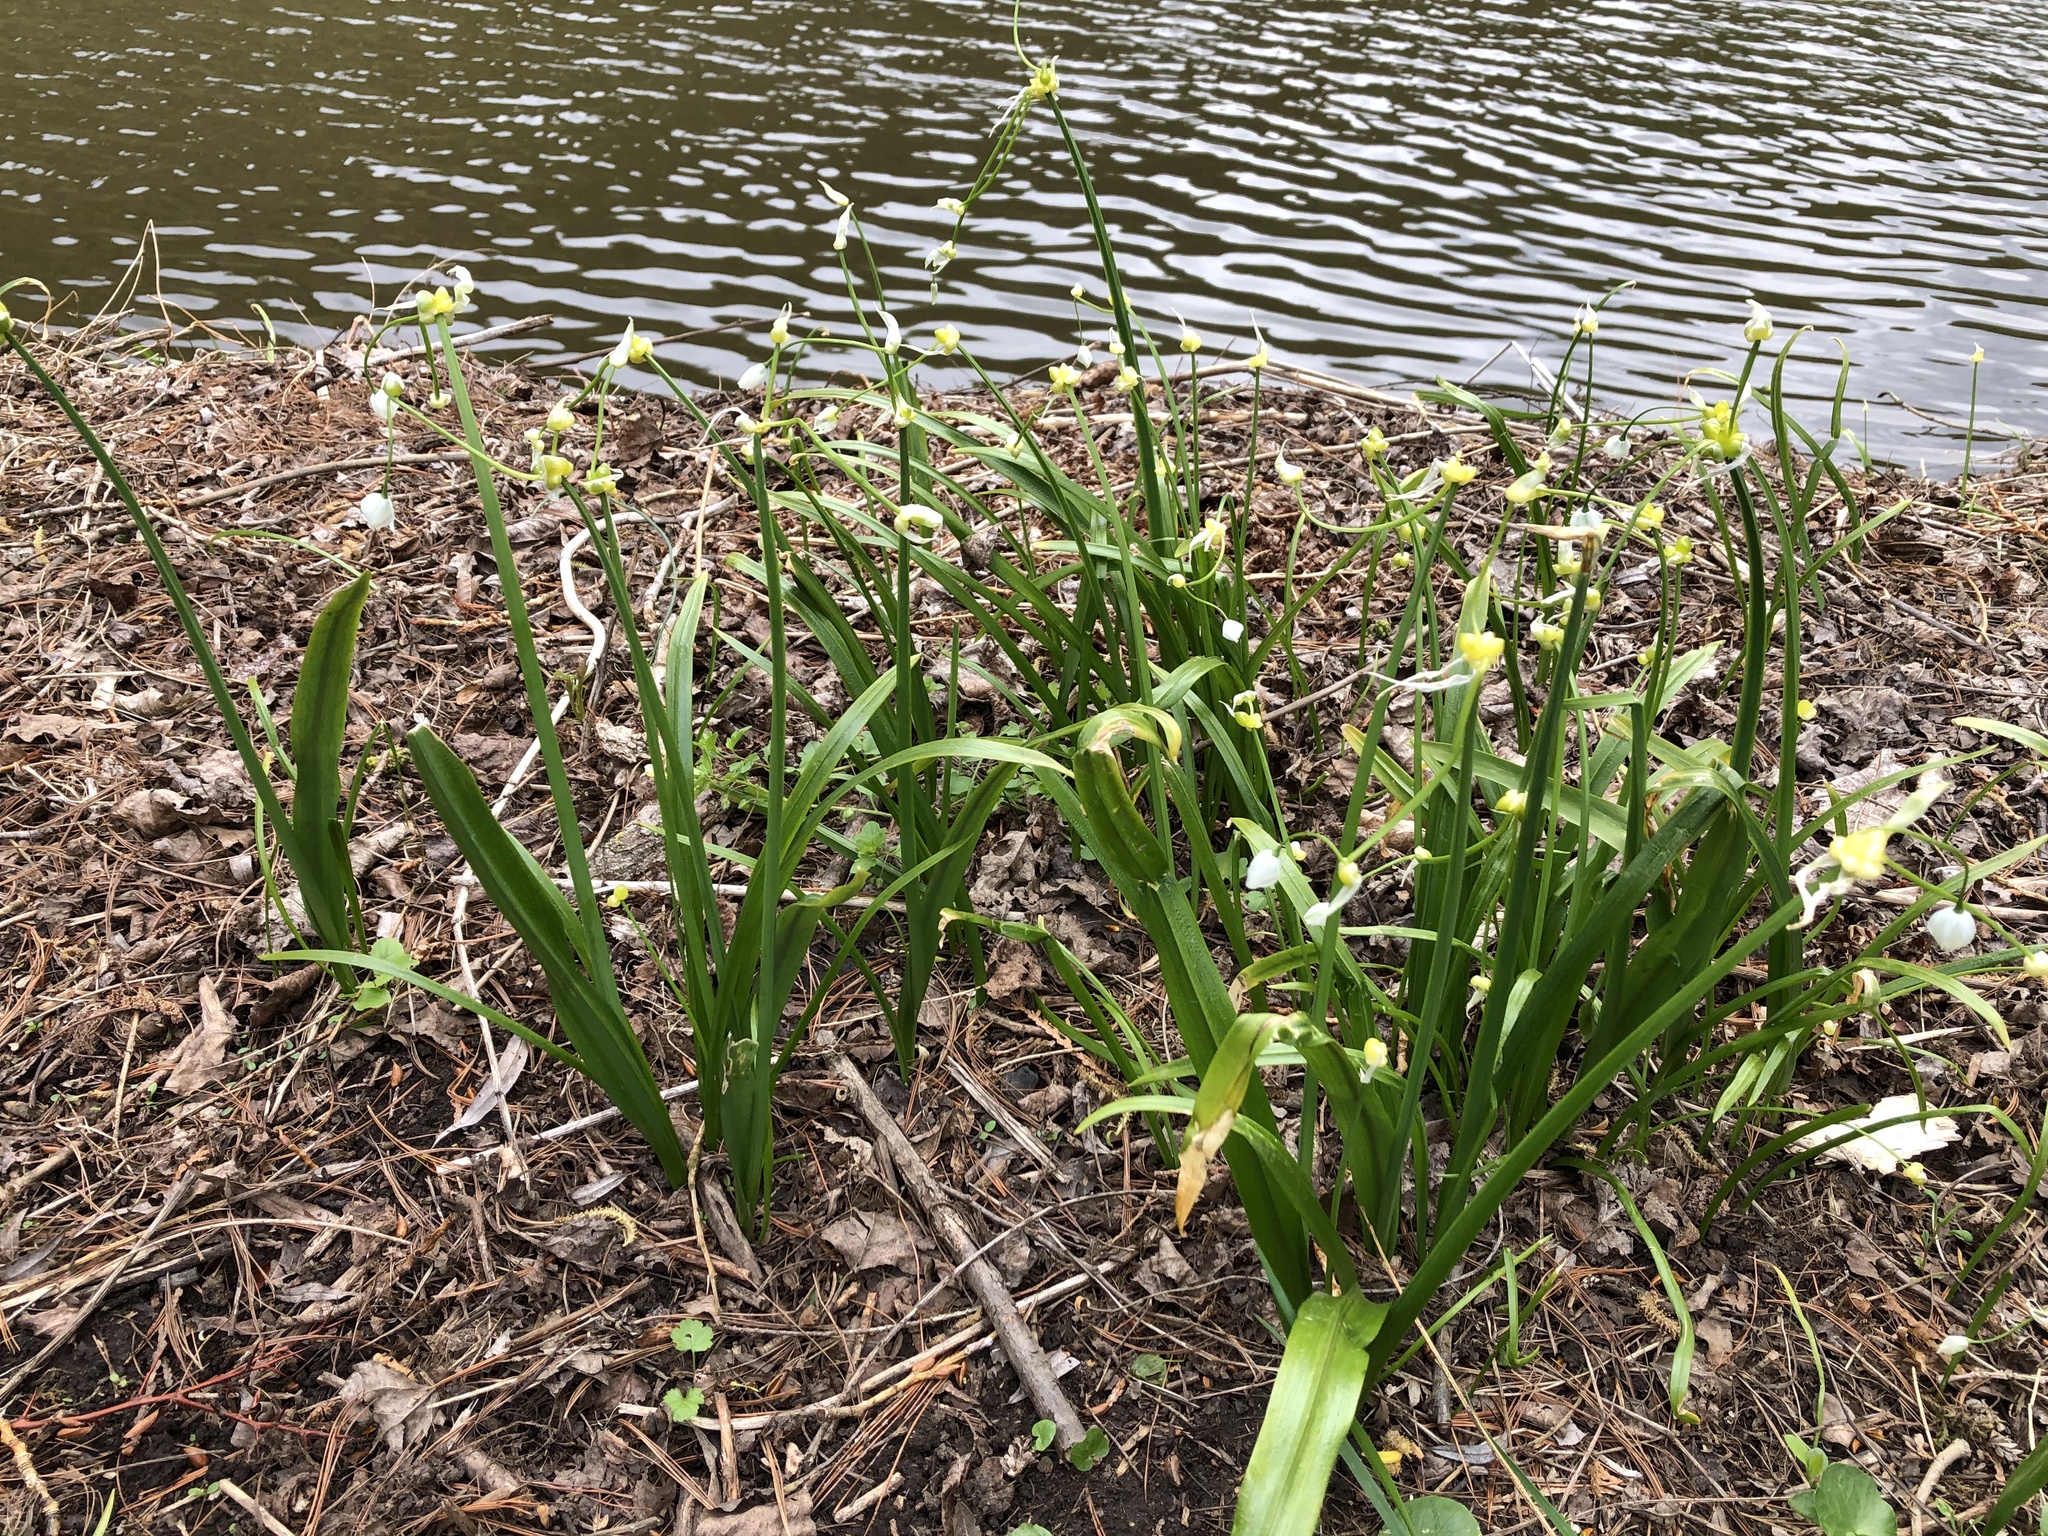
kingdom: Plantae
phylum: Tracheophyta
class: Liliopsida
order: Asparagales
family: Amaryllidaceae
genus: Allium
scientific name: Allium paradoxum
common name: Few-flowered garlic
